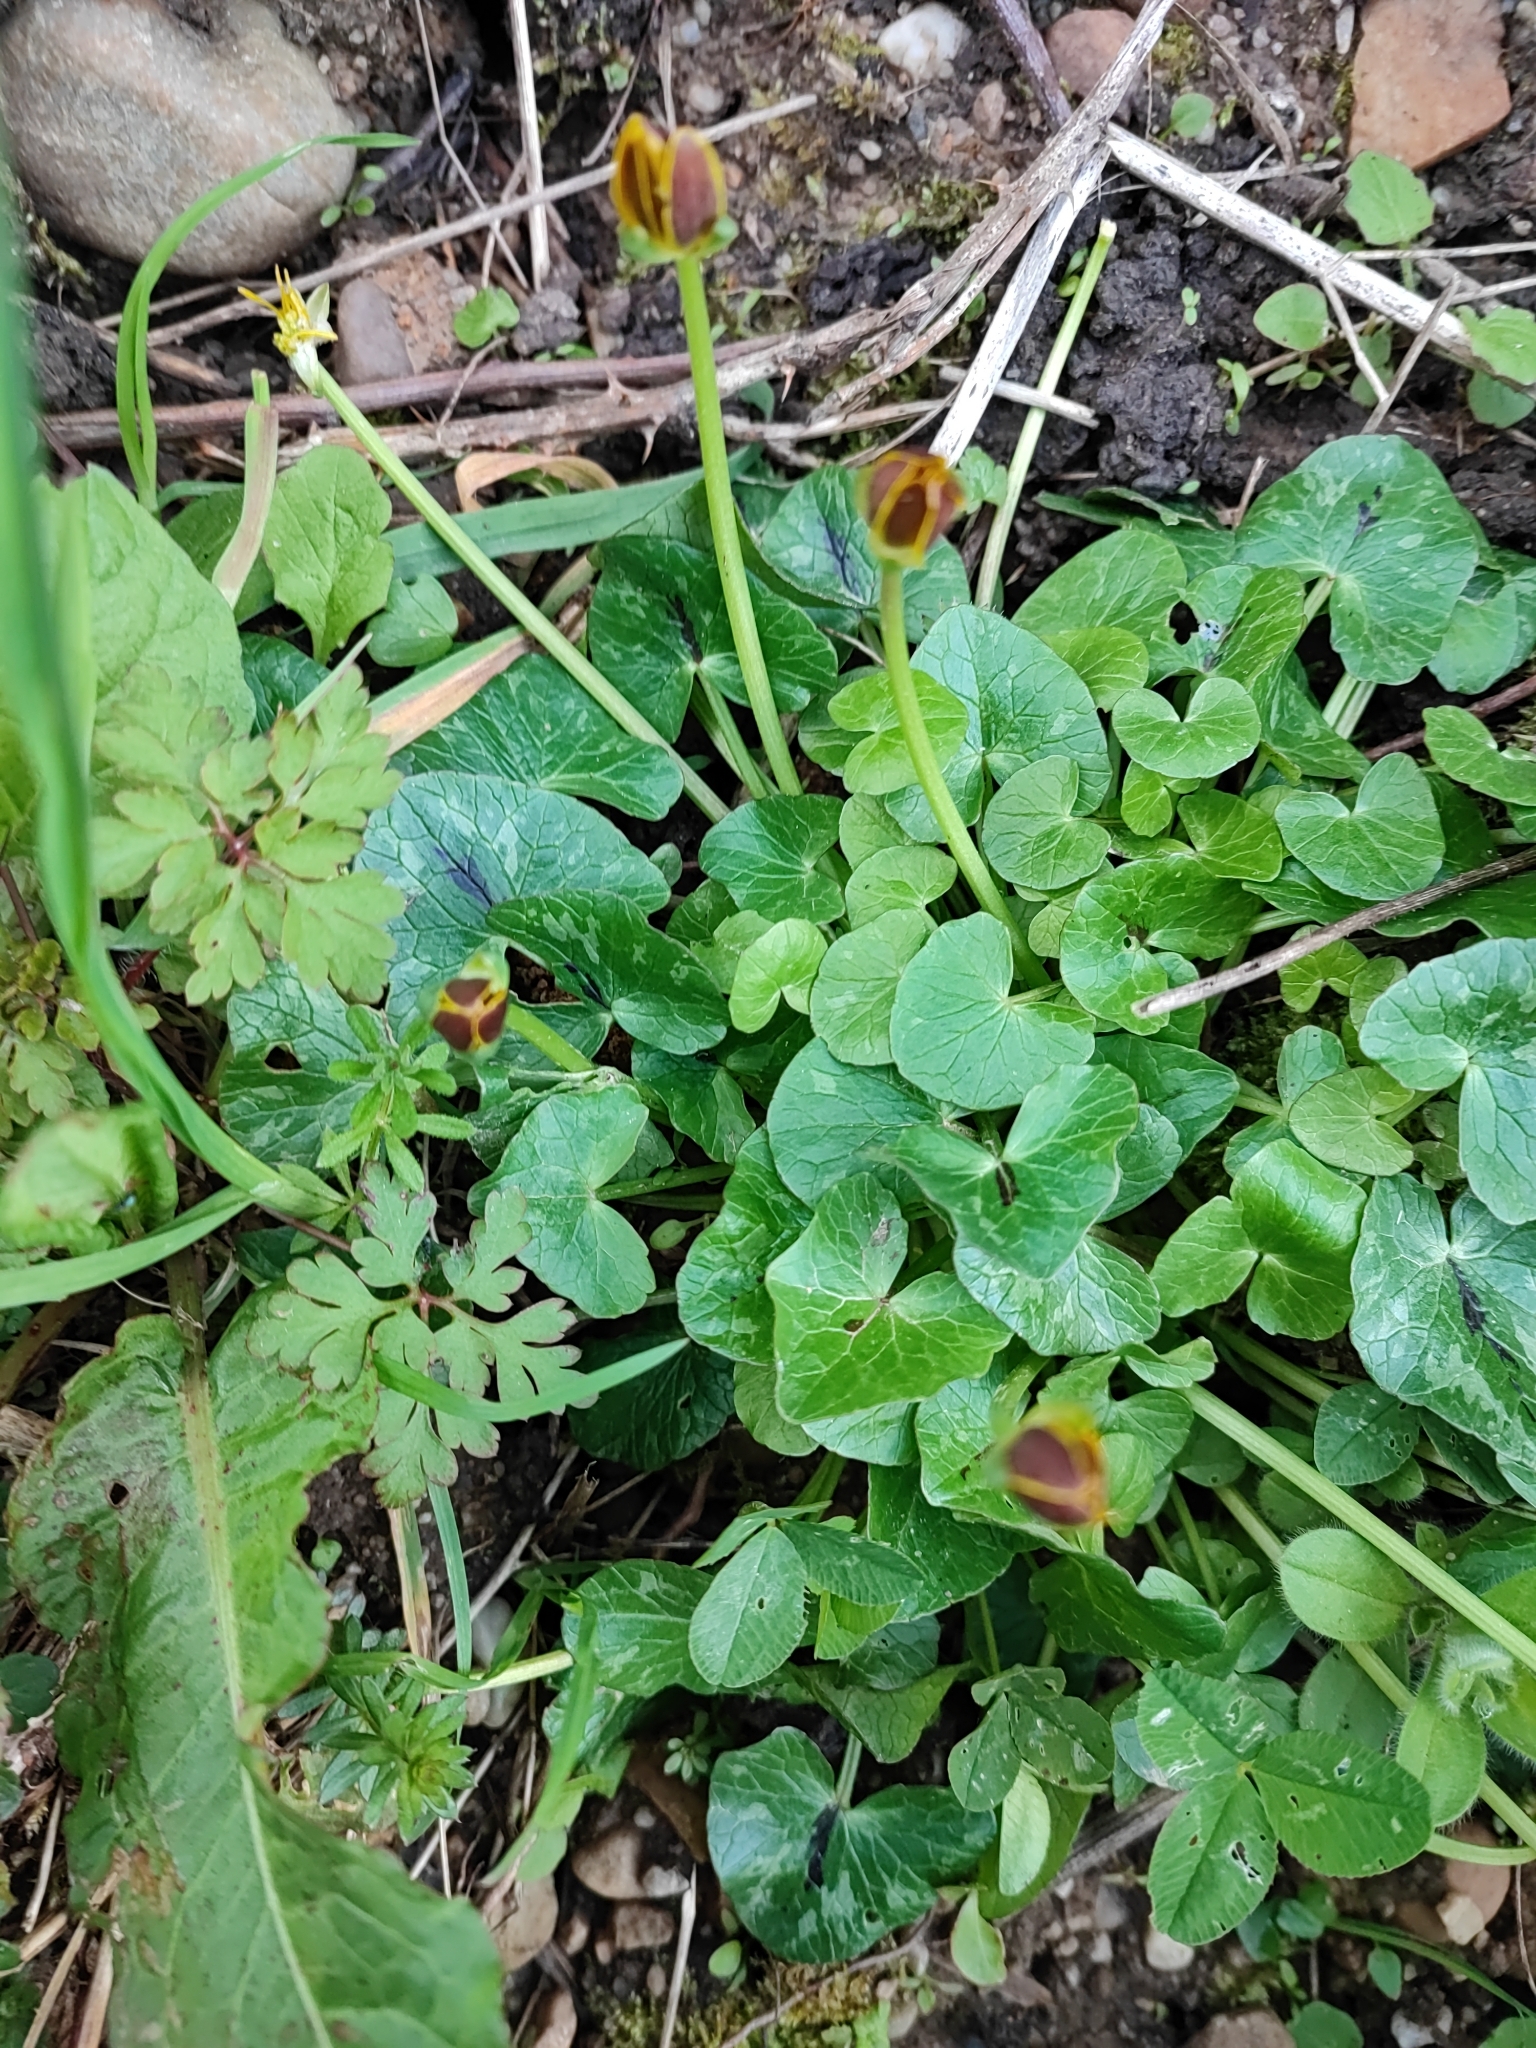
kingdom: Plantae
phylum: Tracheophyta
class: Magnoliopsida
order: Ranunculales
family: Ranunculaceae
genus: Ficaria
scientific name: Ficaria verna
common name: Lesser celandine
